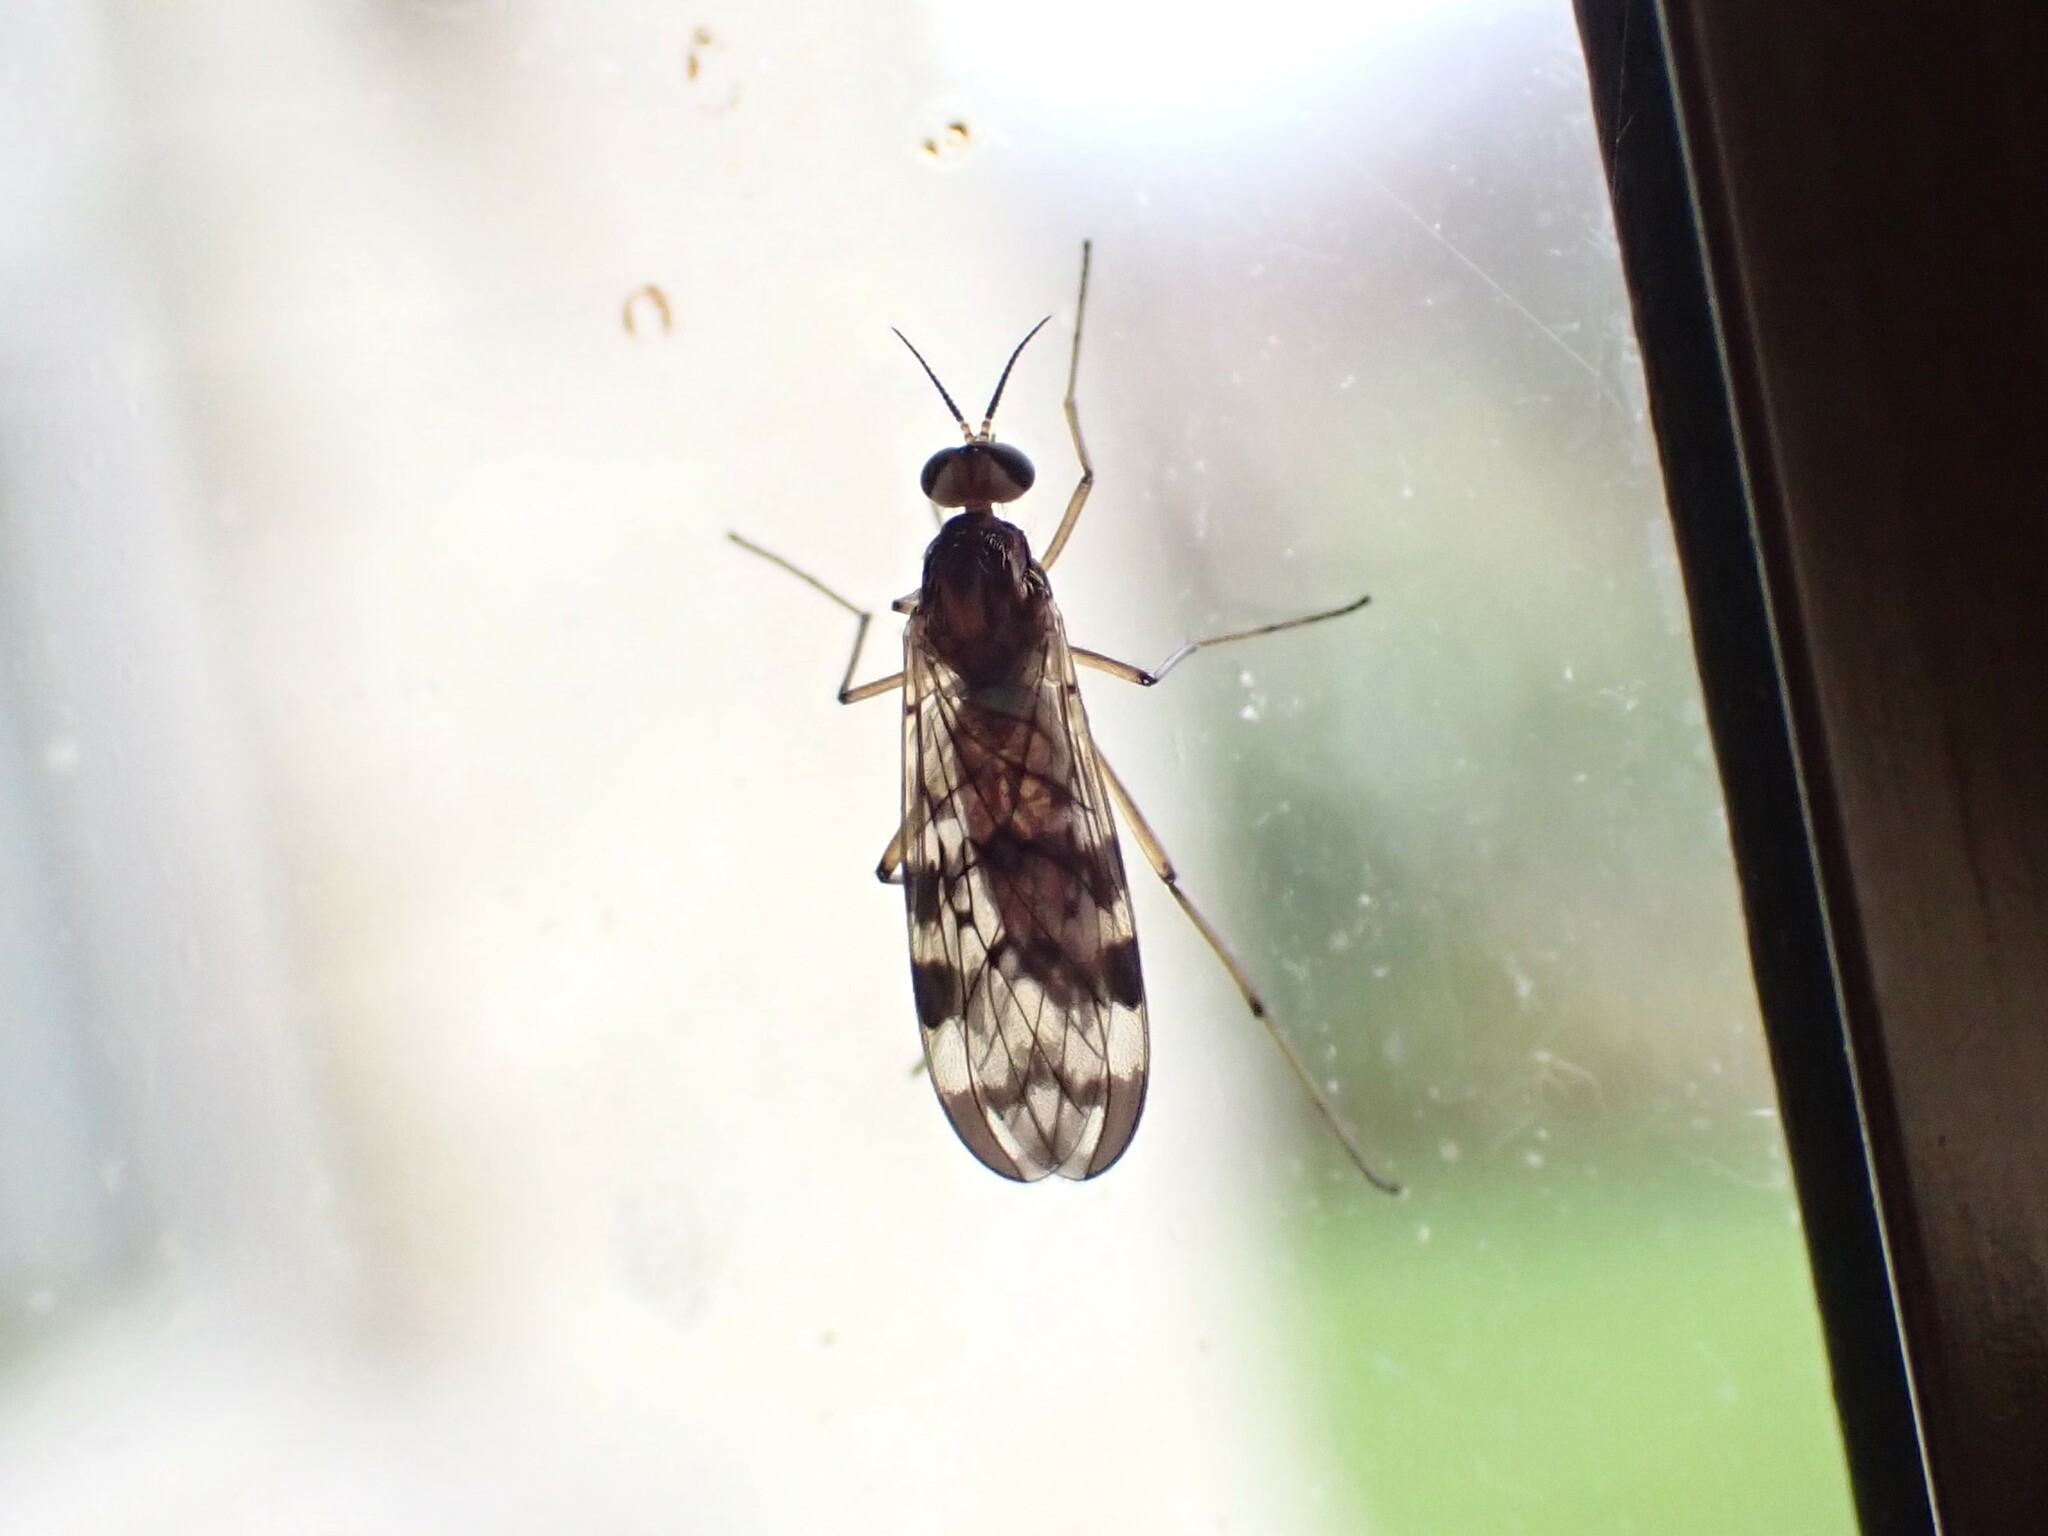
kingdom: Animalia
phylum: Arthropoda
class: Insecta
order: Diptera
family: Anisopodidae
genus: Sylvicola
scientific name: Sylvicola dubius
